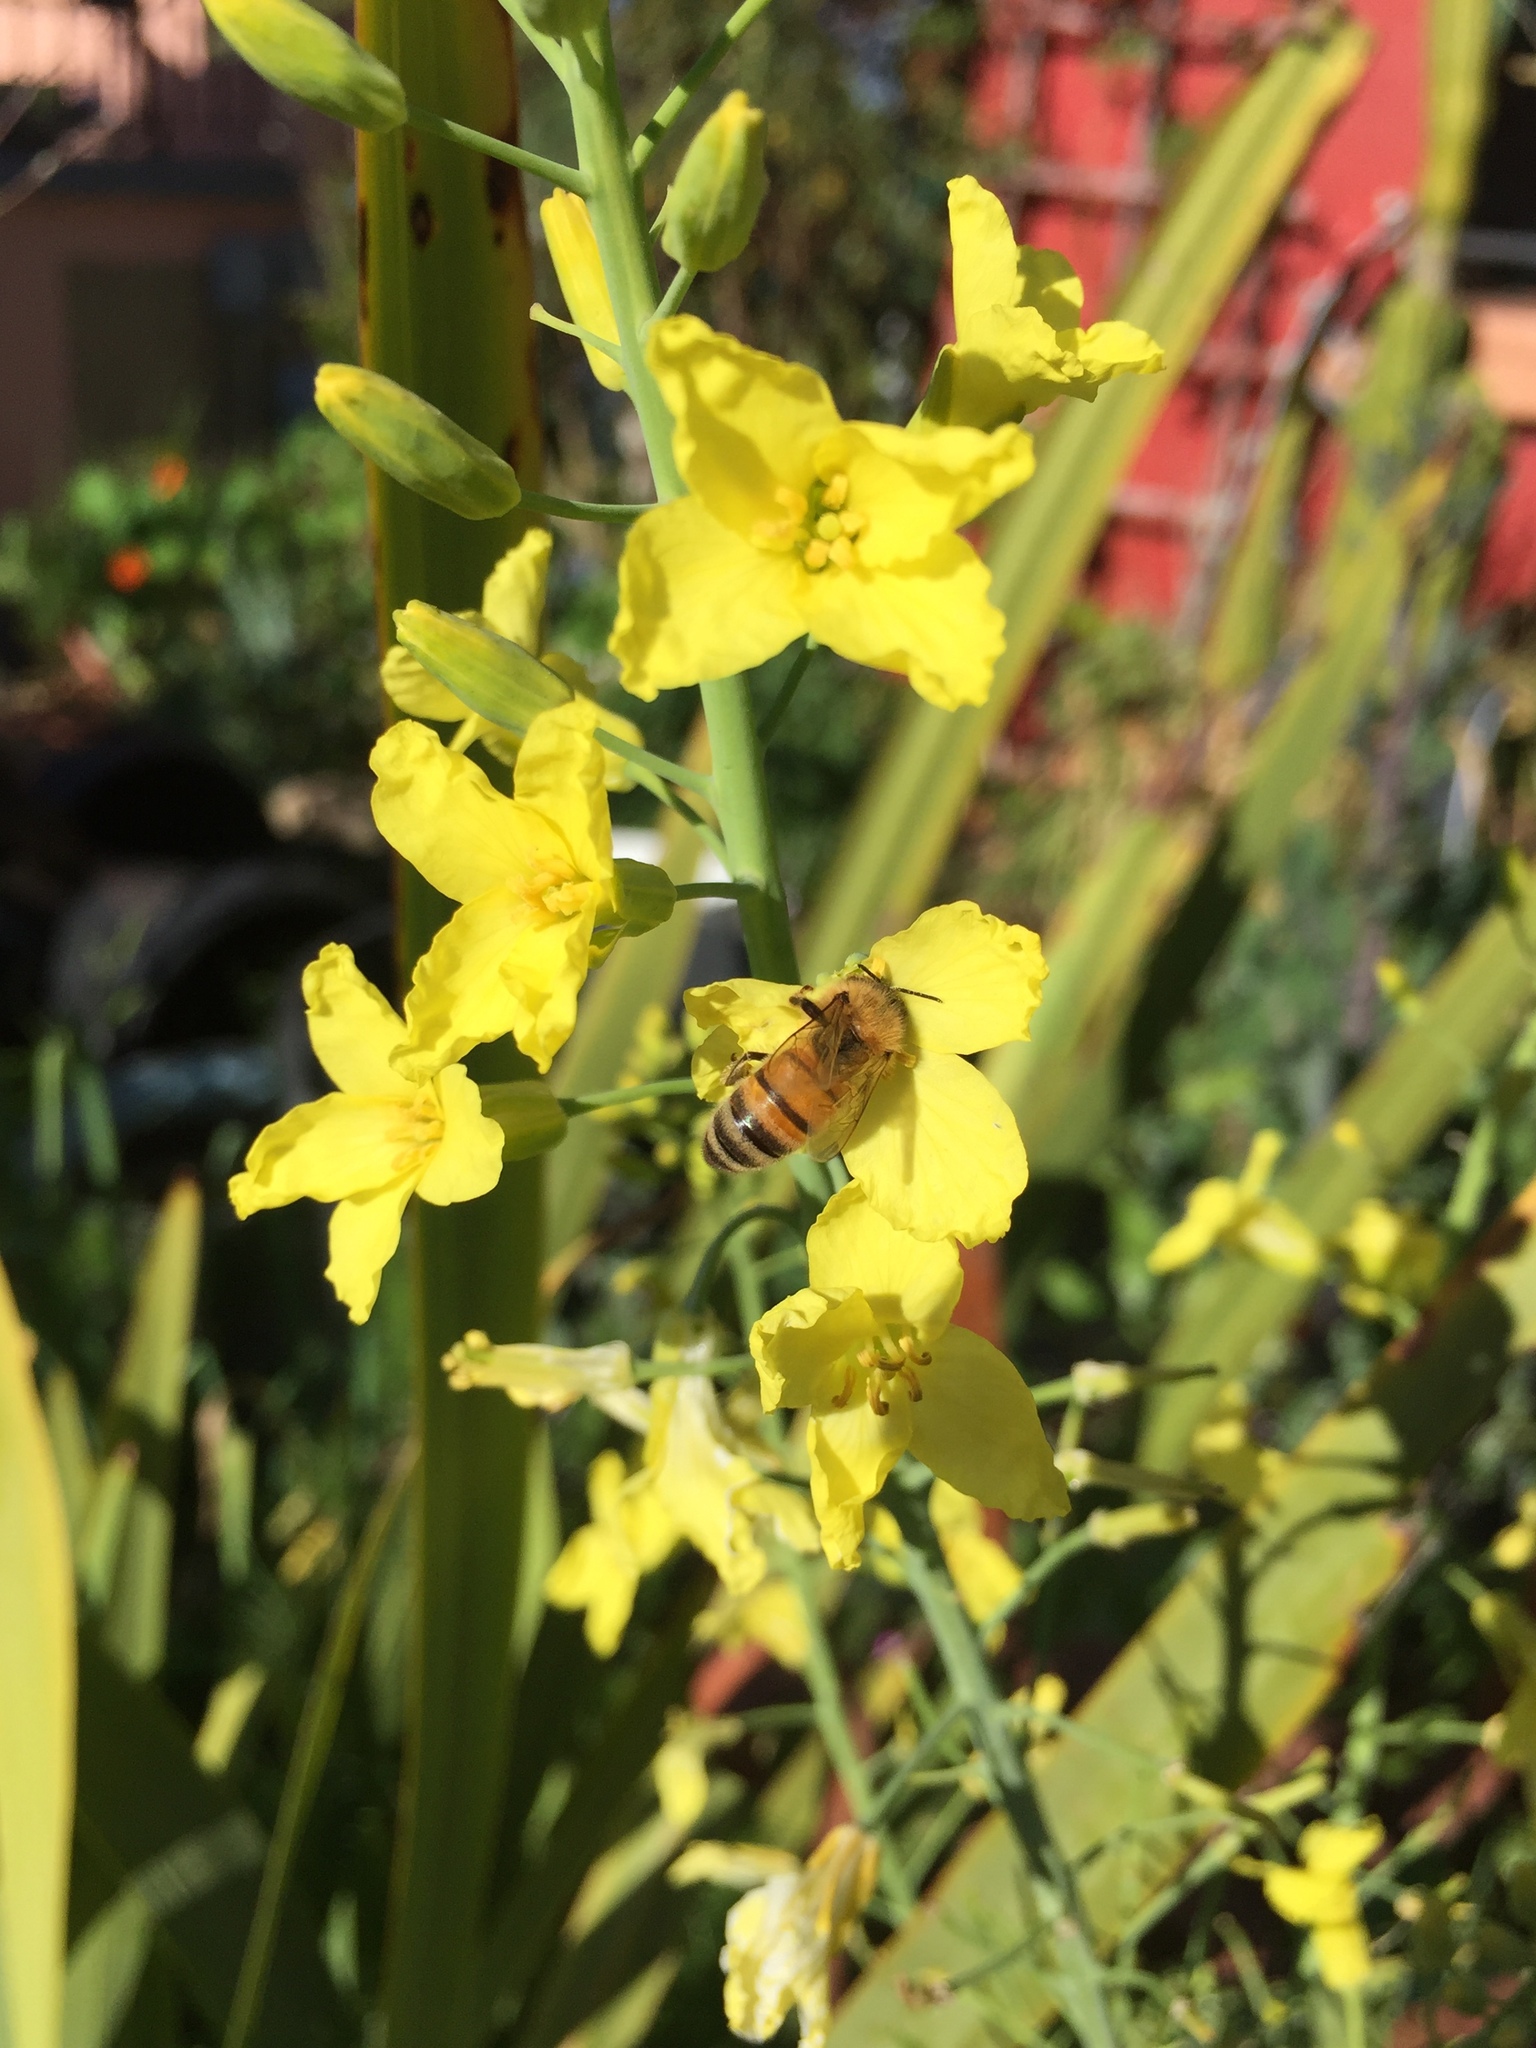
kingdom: Animalia
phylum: Arthropoda
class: Insecta
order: Hymenoptera
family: Apidae
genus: Apis
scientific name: Apis mellifera
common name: Honey bee
